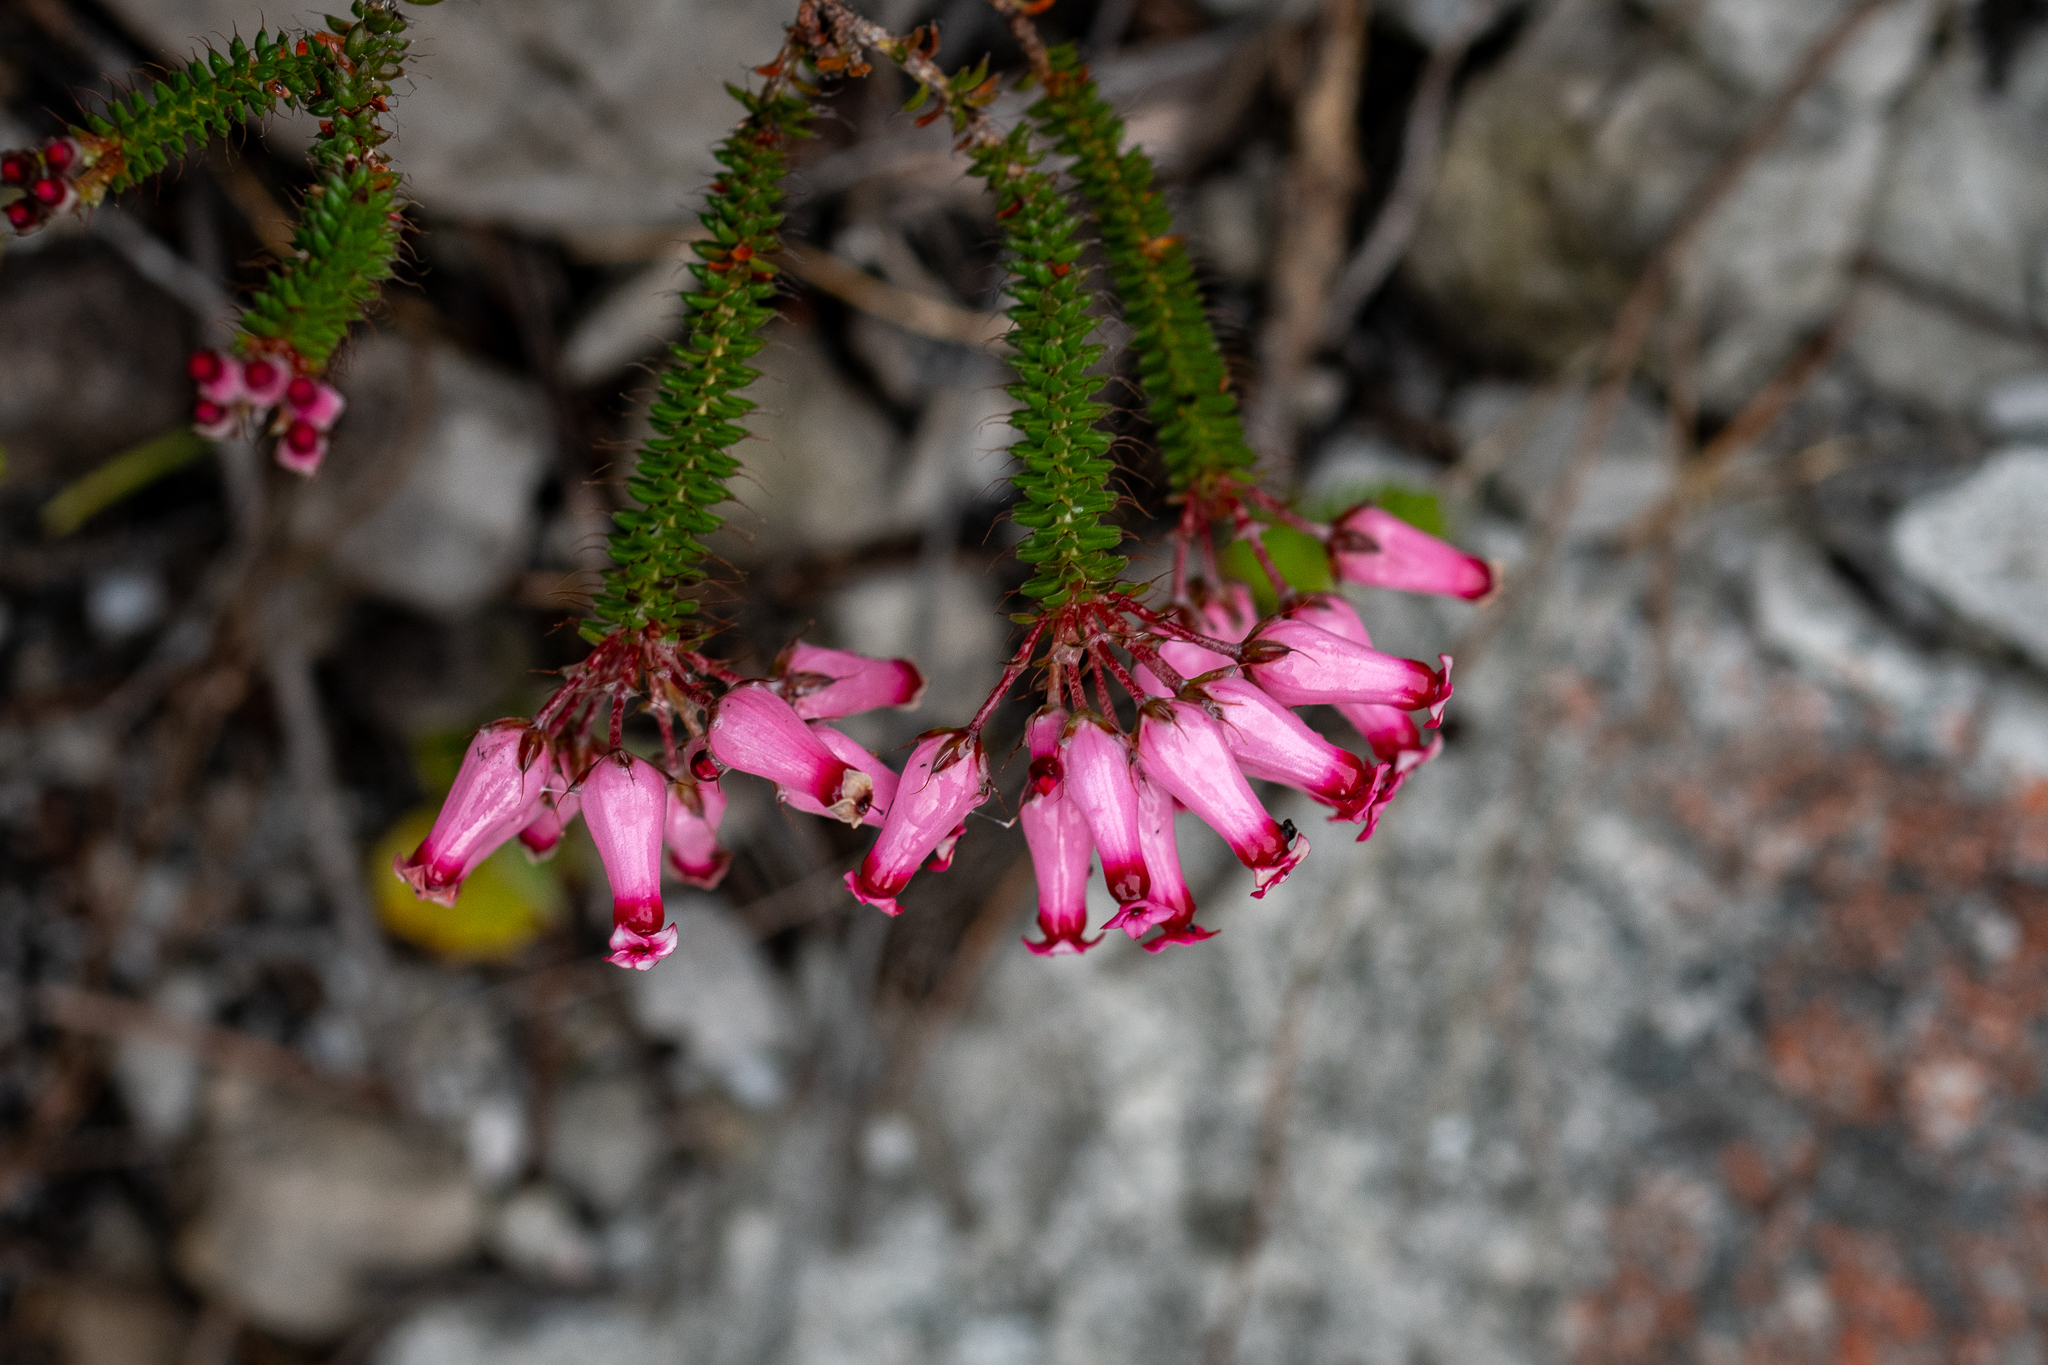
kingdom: Plantae
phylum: Tracheophyta
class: Magnoliopsida
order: Ericales
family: Ericaceae
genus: Erica
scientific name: Erica retorta
